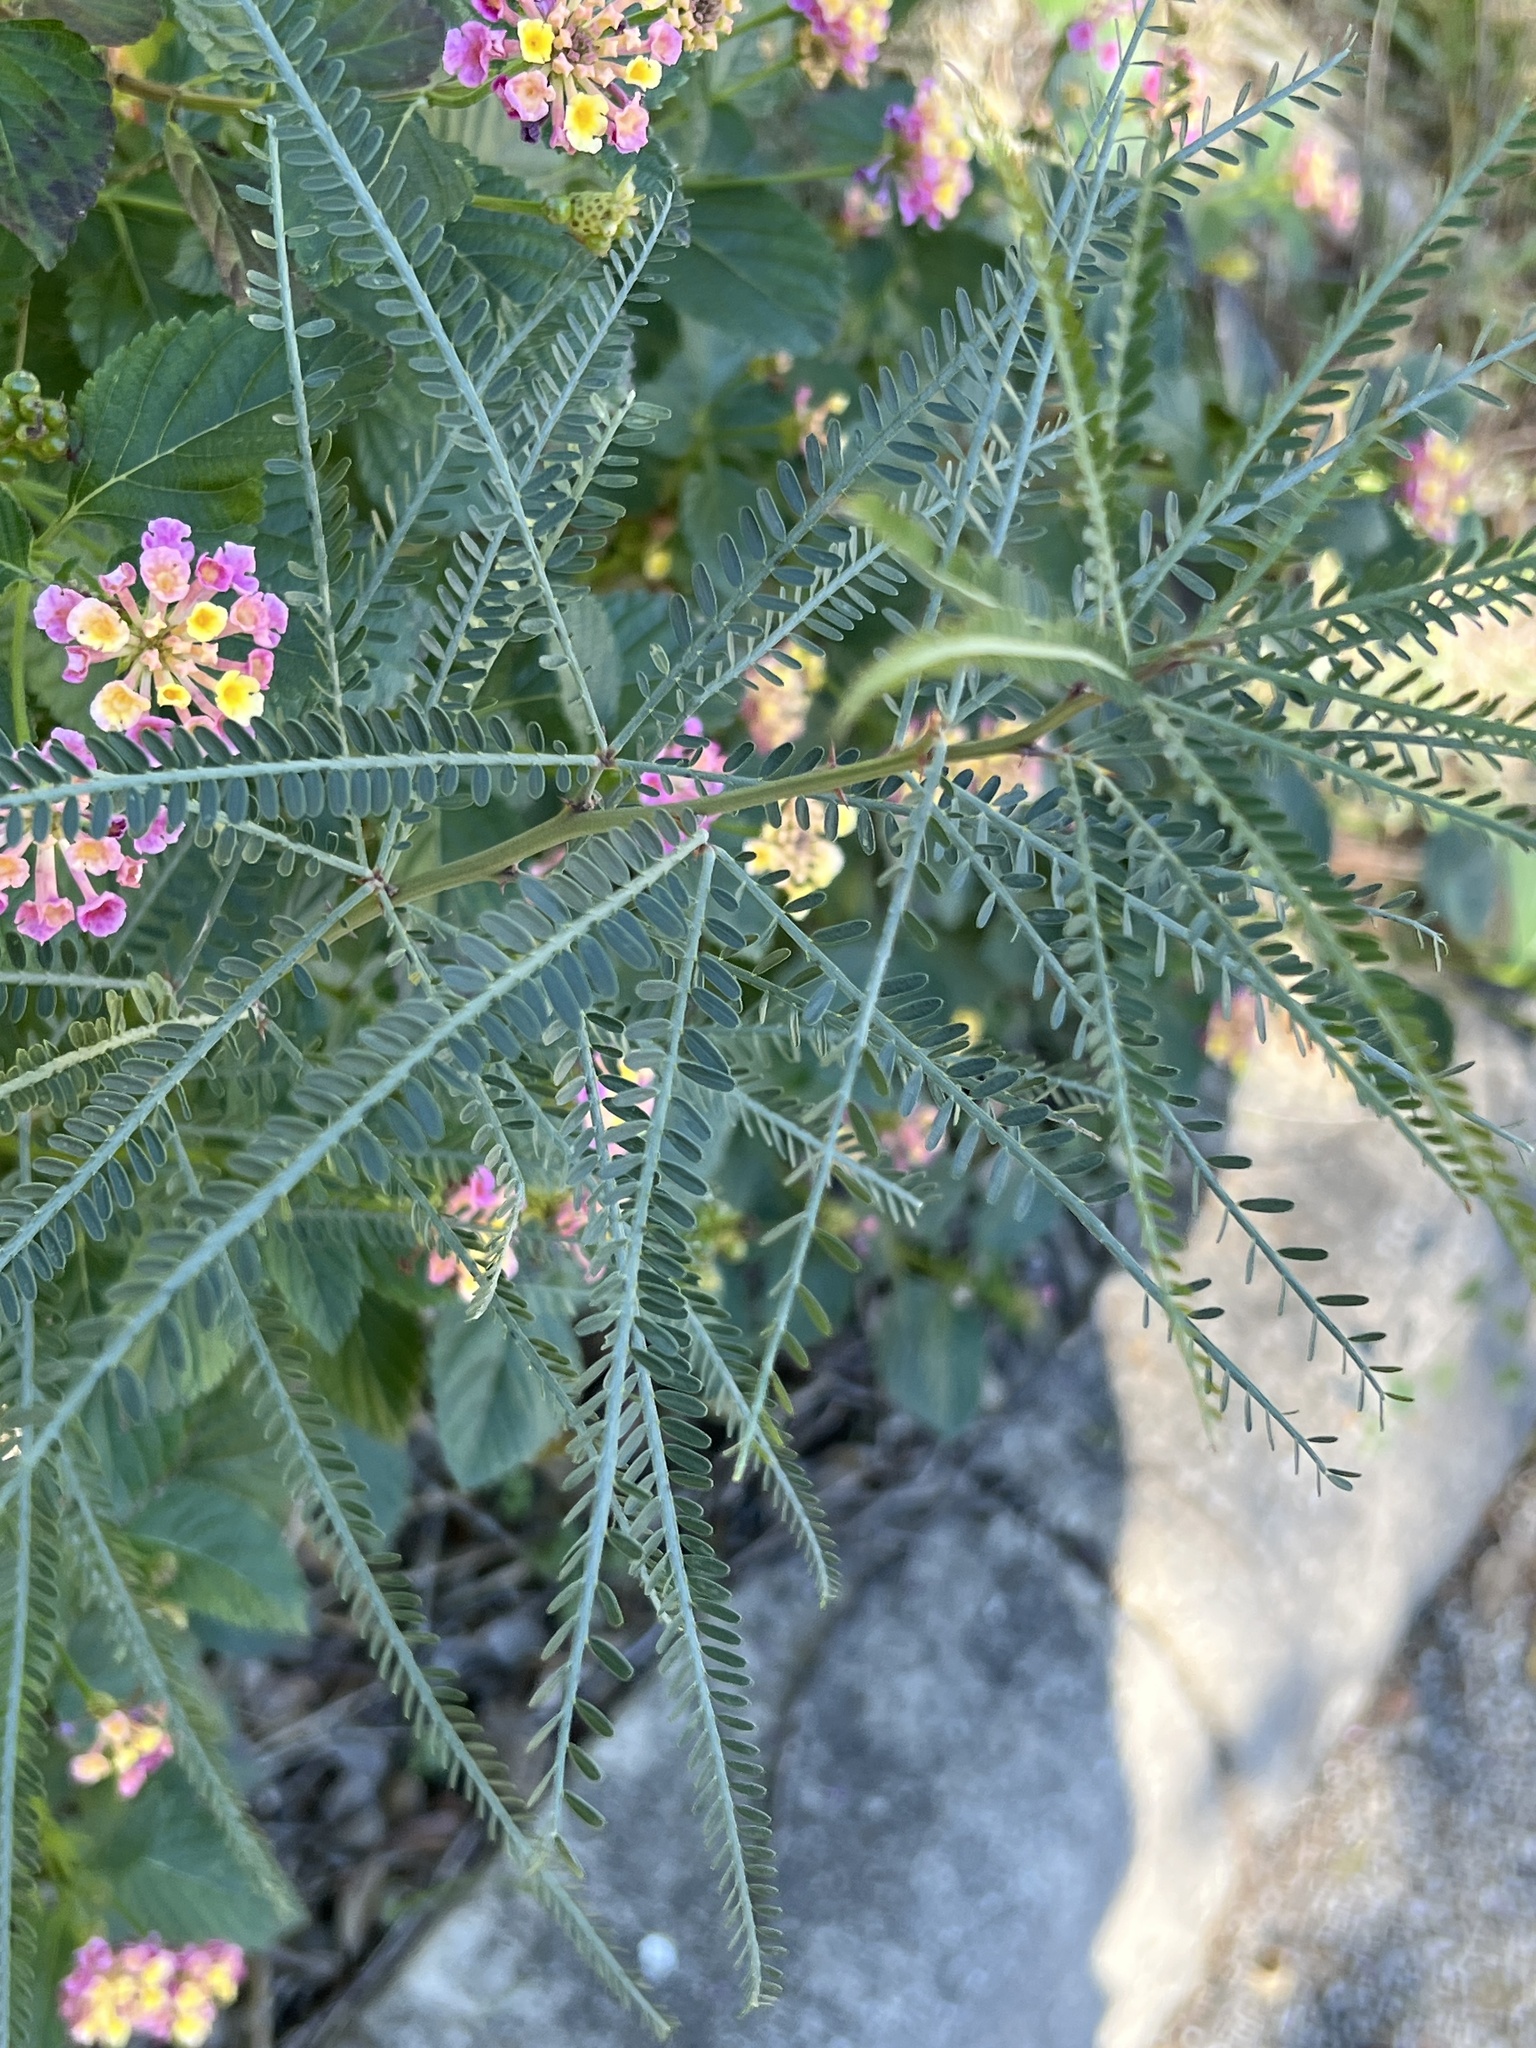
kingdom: Plantae
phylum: Tracheophyta
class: Magnoliopsida
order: Fabales
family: Fabaceae
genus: Parkinsonia
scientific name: Parkinsonia aculeata
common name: Jerusalem thorn
